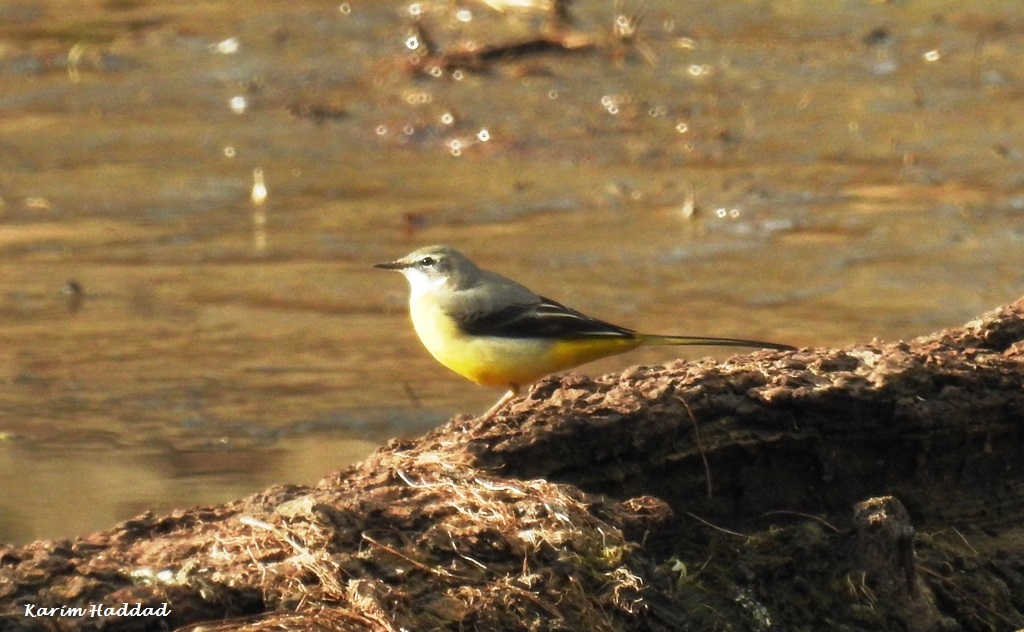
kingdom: Animalia
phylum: Chordata
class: Aves
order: Passeriformes
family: Motacillidae
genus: Motacilla
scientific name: Motacilla cinerea
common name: Grey wagtail
